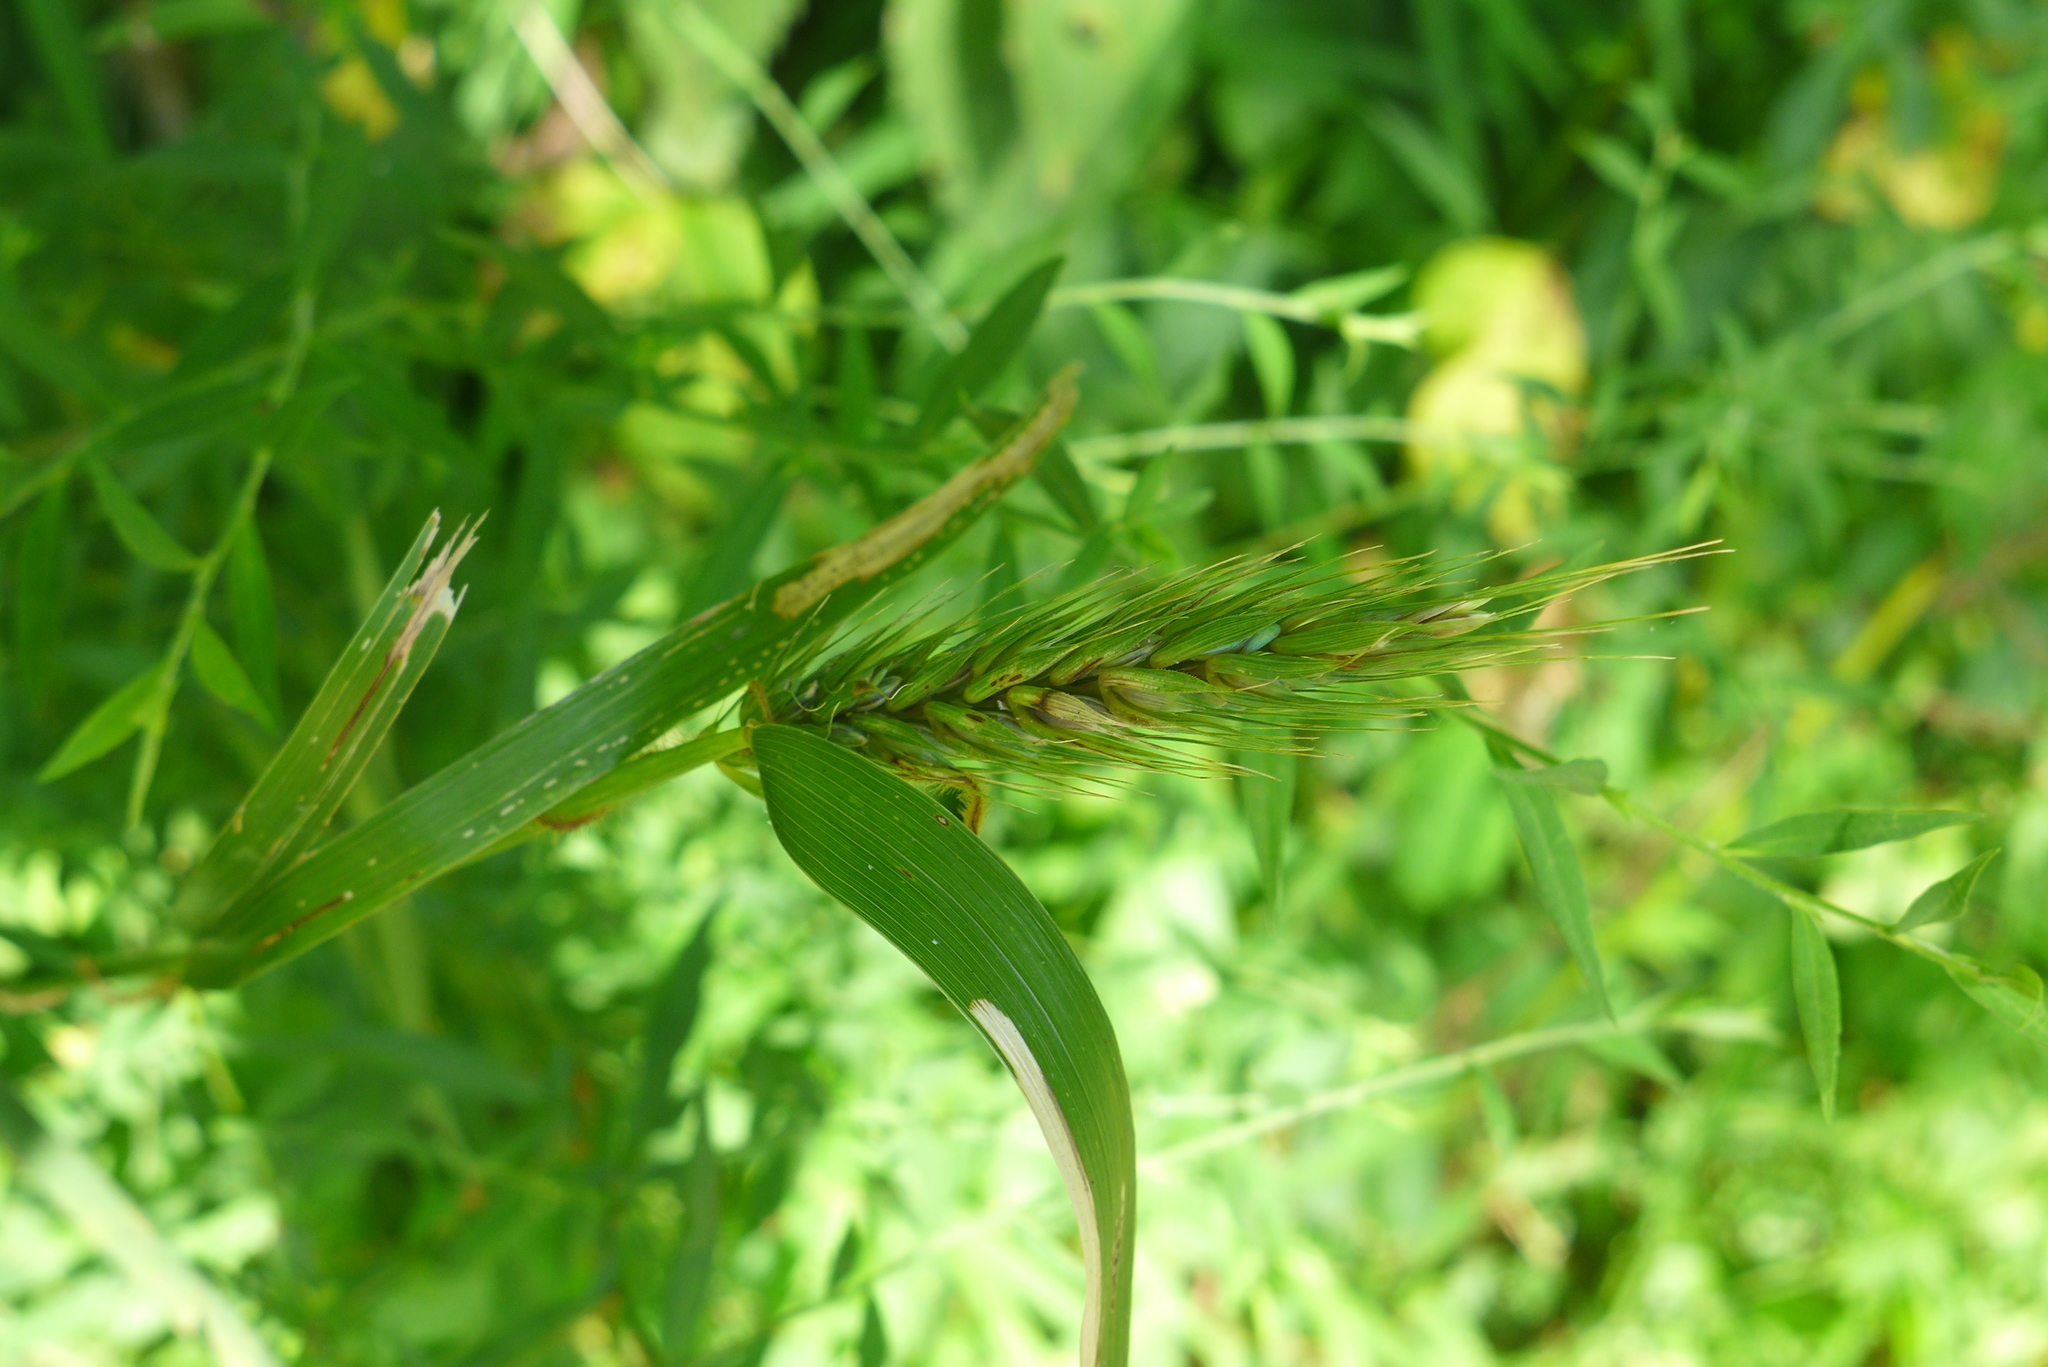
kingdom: Plantae
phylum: Tracheophyta
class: Liliopsida
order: Poales
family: Poaceae
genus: Elymus
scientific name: Elymus virginicus
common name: Common eastern wildrye
